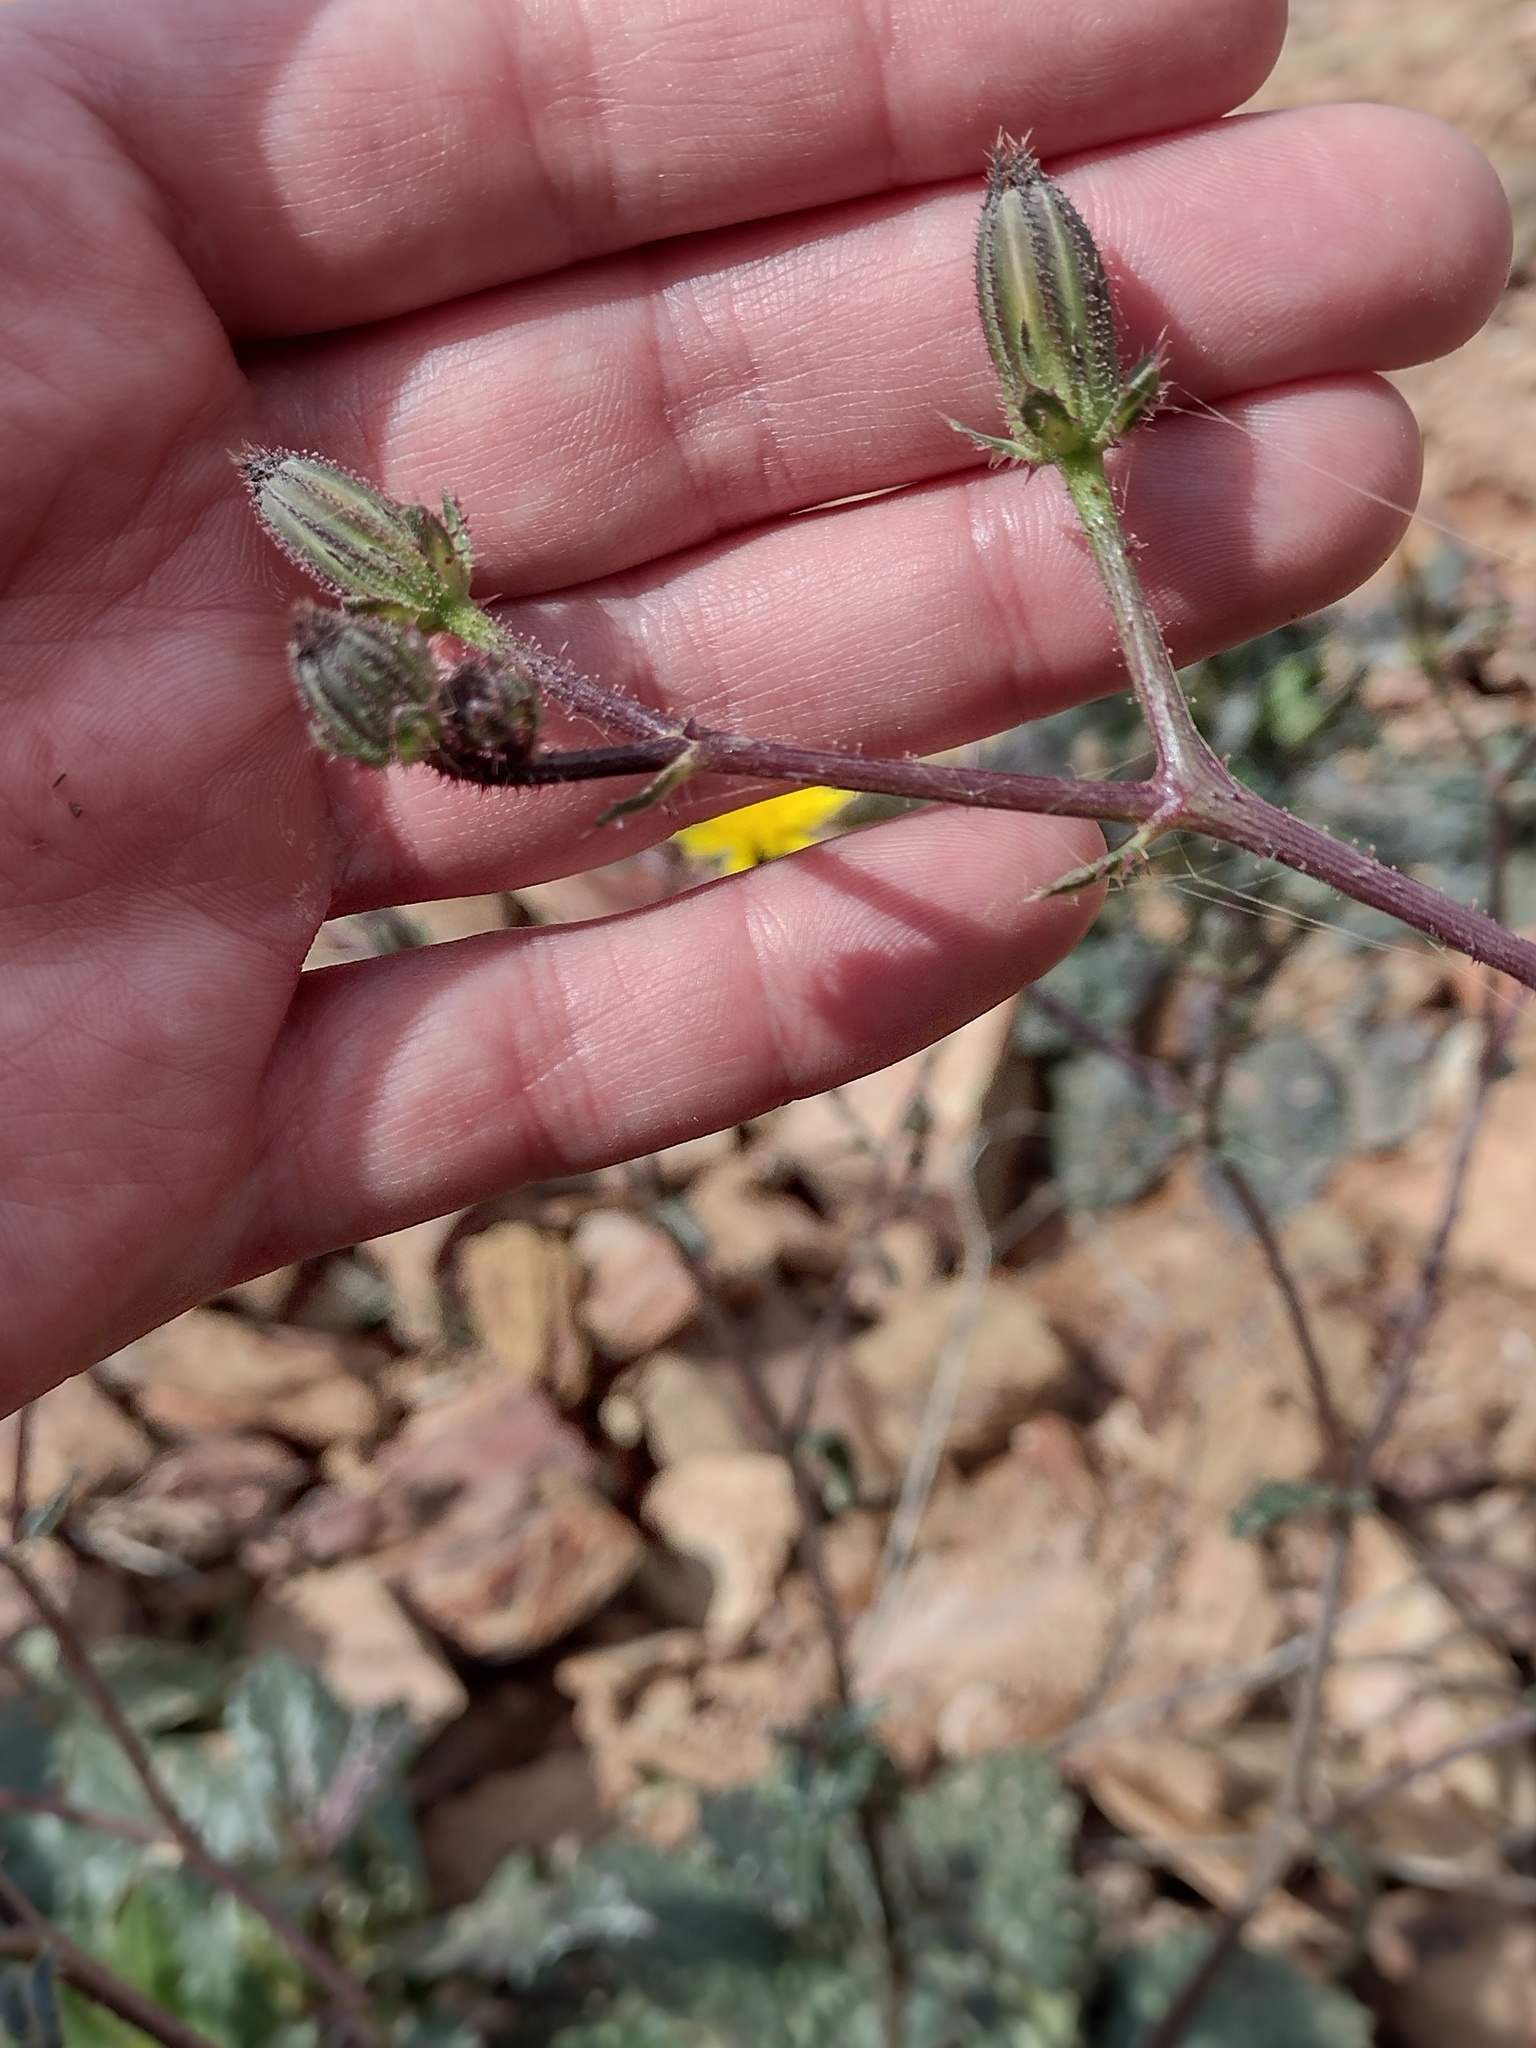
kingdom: Plantae
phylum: Tracheophyta
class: Magnoliopsida
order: Asterales
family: Asteraceae
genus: Helminthotheca
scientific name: Helminthotheca spinosa
